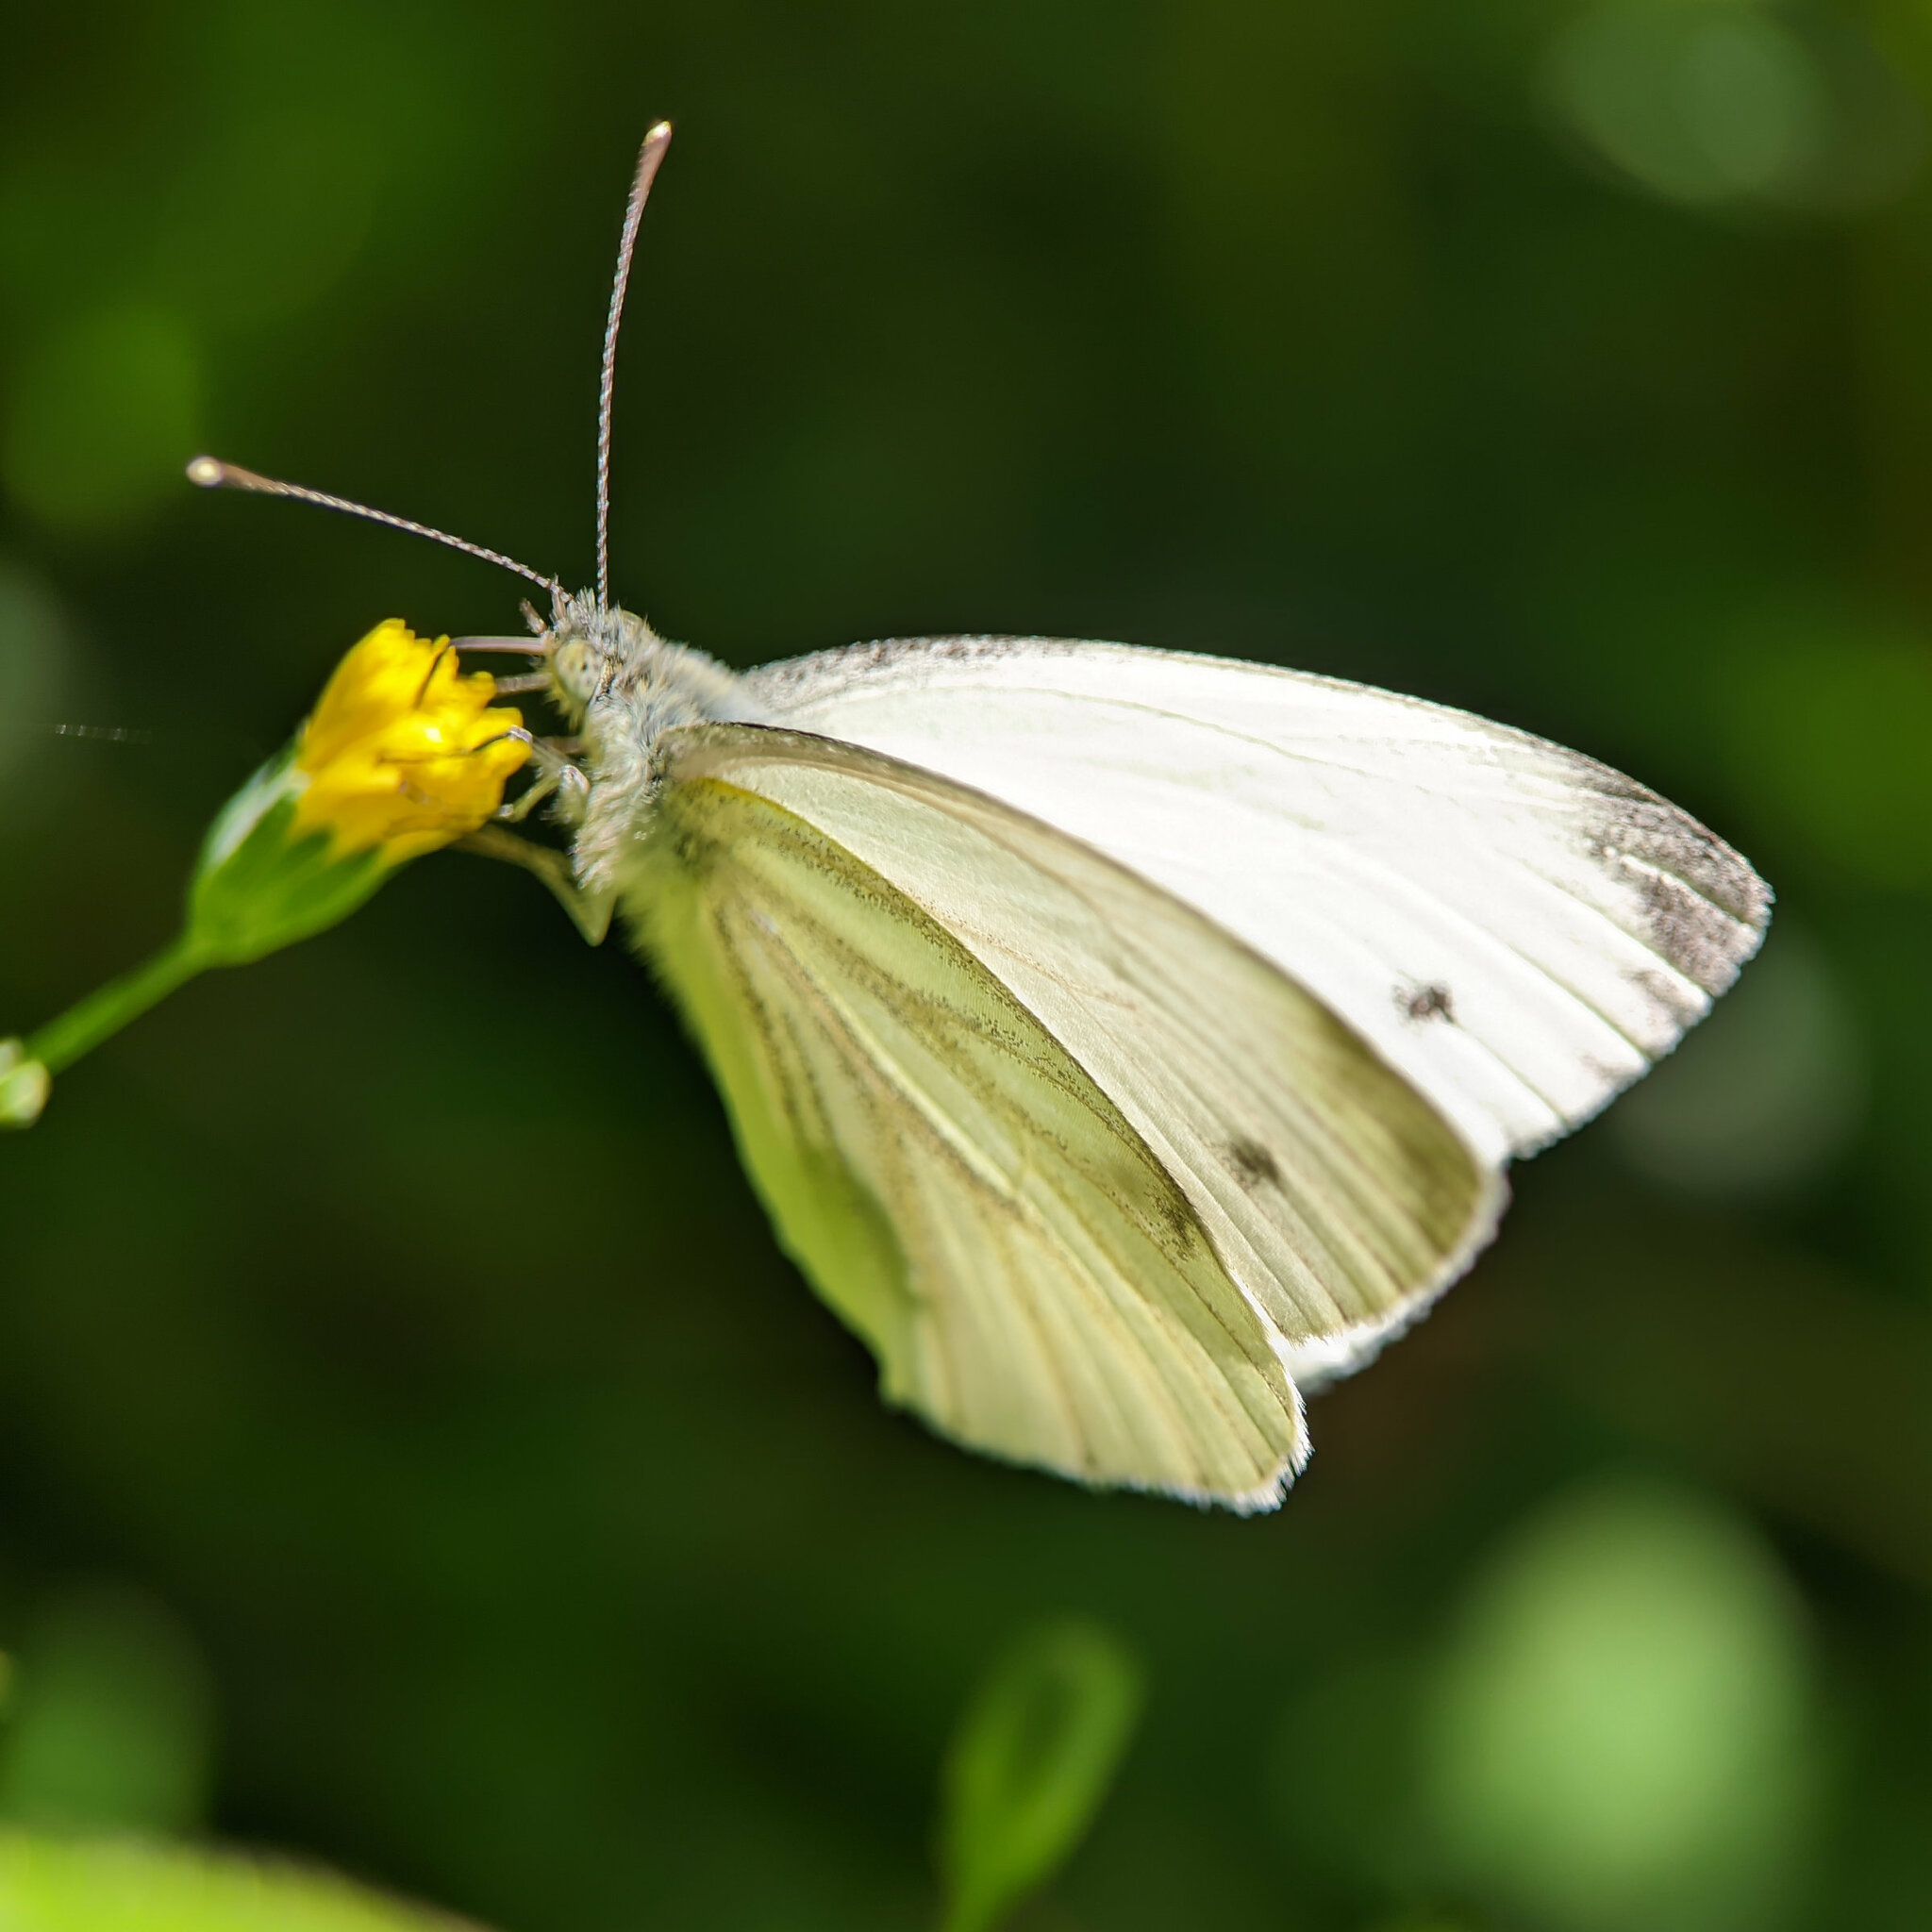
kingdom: Animalia
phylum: Arthropoda
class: Insecta
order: Lepidoptera
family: Pieridae
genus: Pieris
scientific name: Pieris napi
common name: Green-veined white
